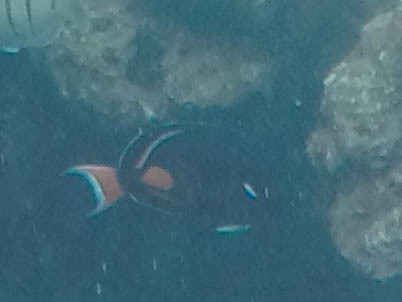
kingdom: Animalia
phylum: Chordata
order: Perciformes
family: Acanthuridae
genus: Acanthurus
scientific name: Acanthurus achilles
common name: Achilles tang
